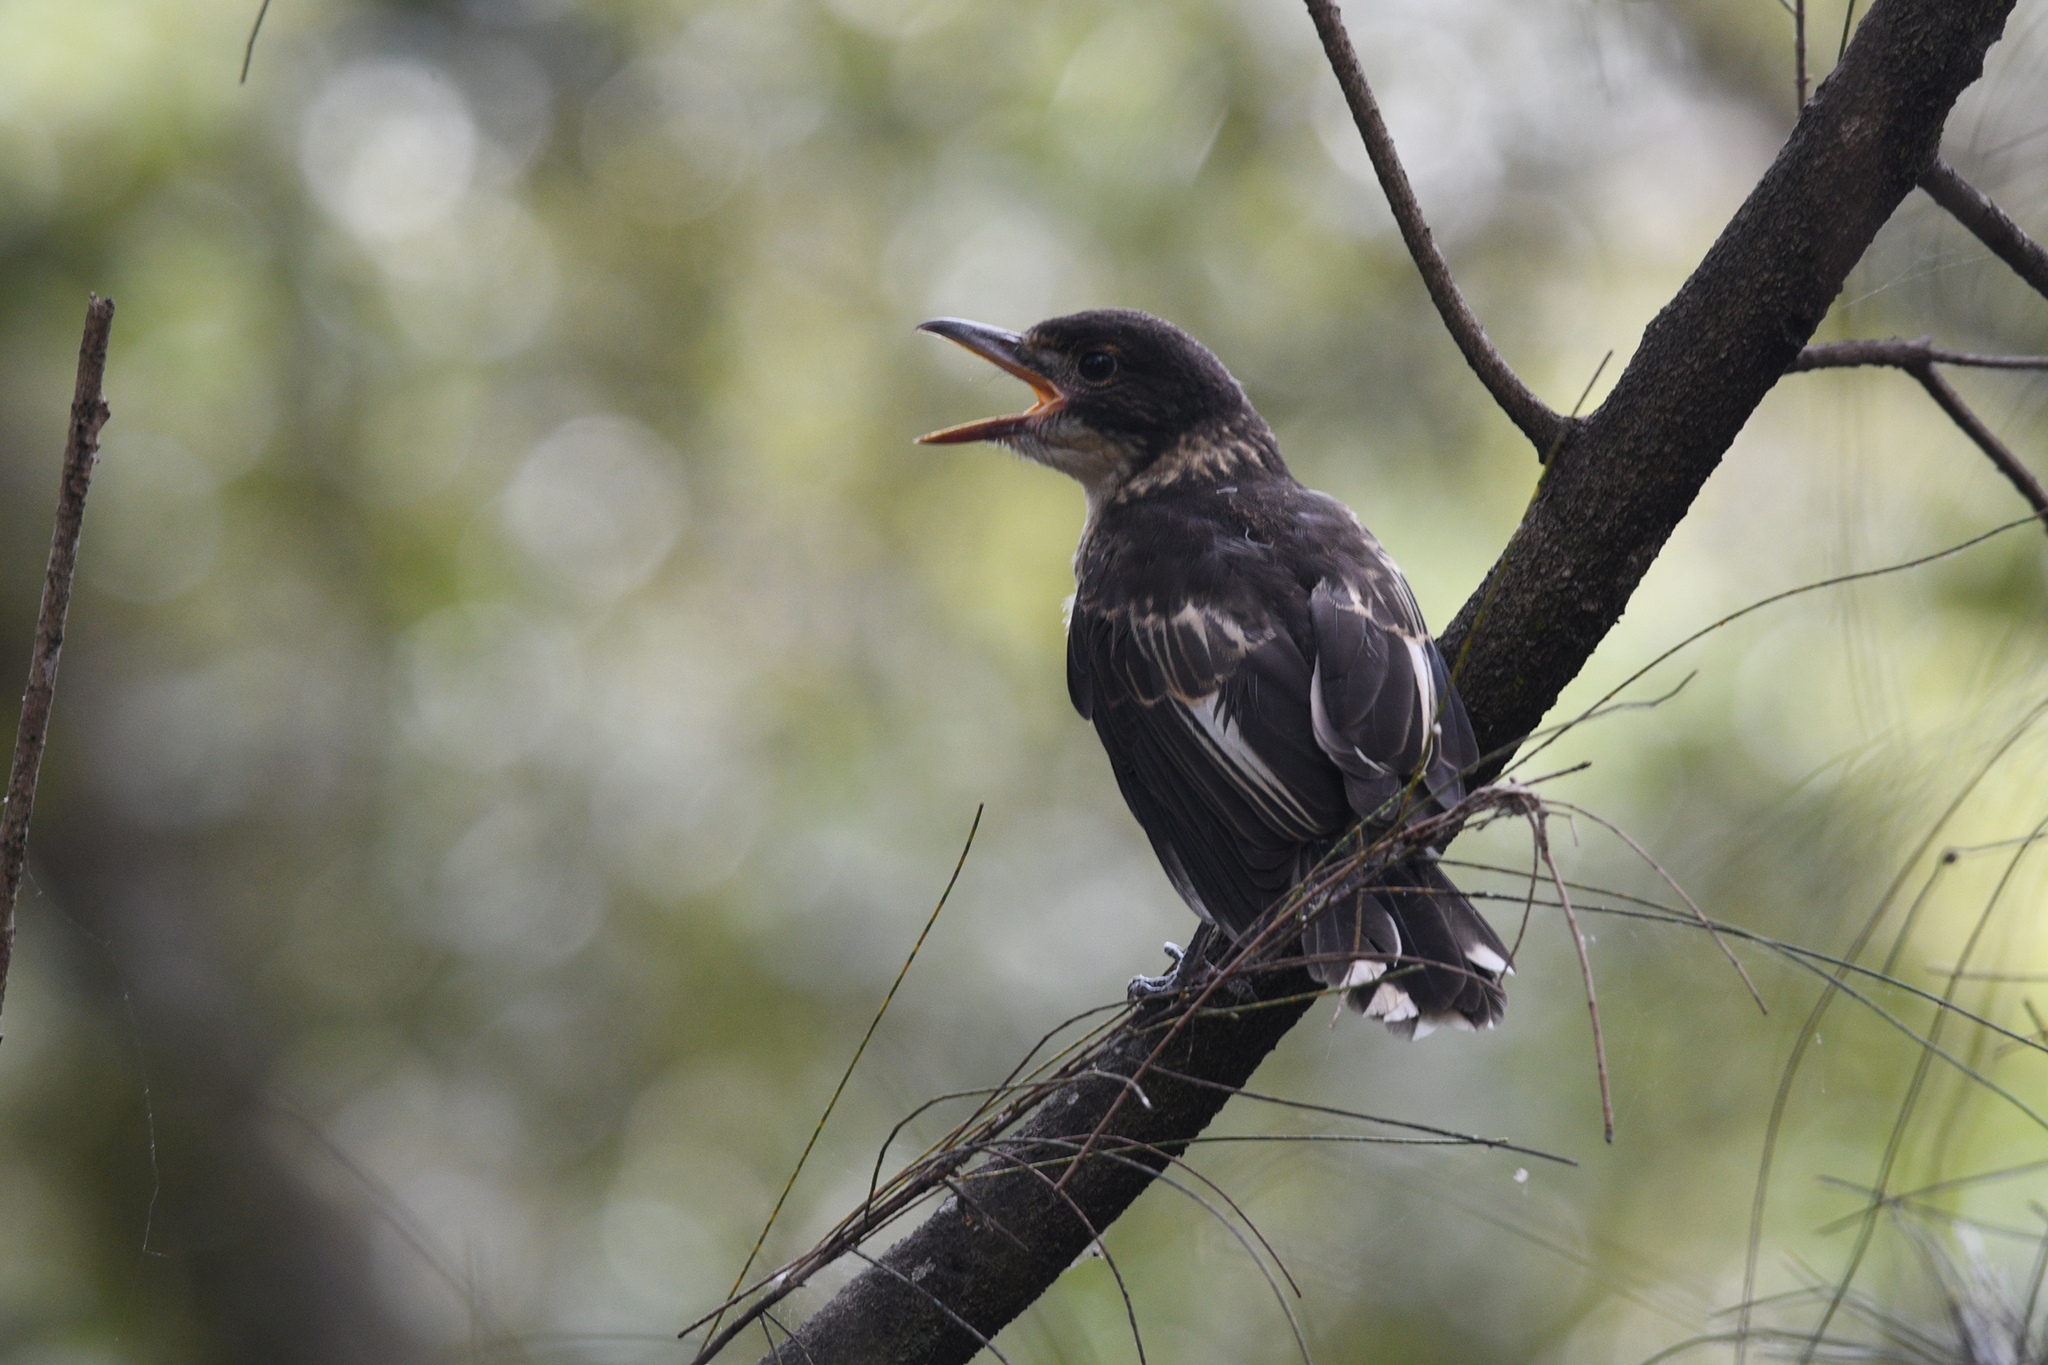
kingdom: Animalia
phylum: Chordata
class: Aves
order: Passeriformes
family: Cracticidae
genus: Cracticus
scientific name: Cracticus torquatus
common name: Grey butcherbird
